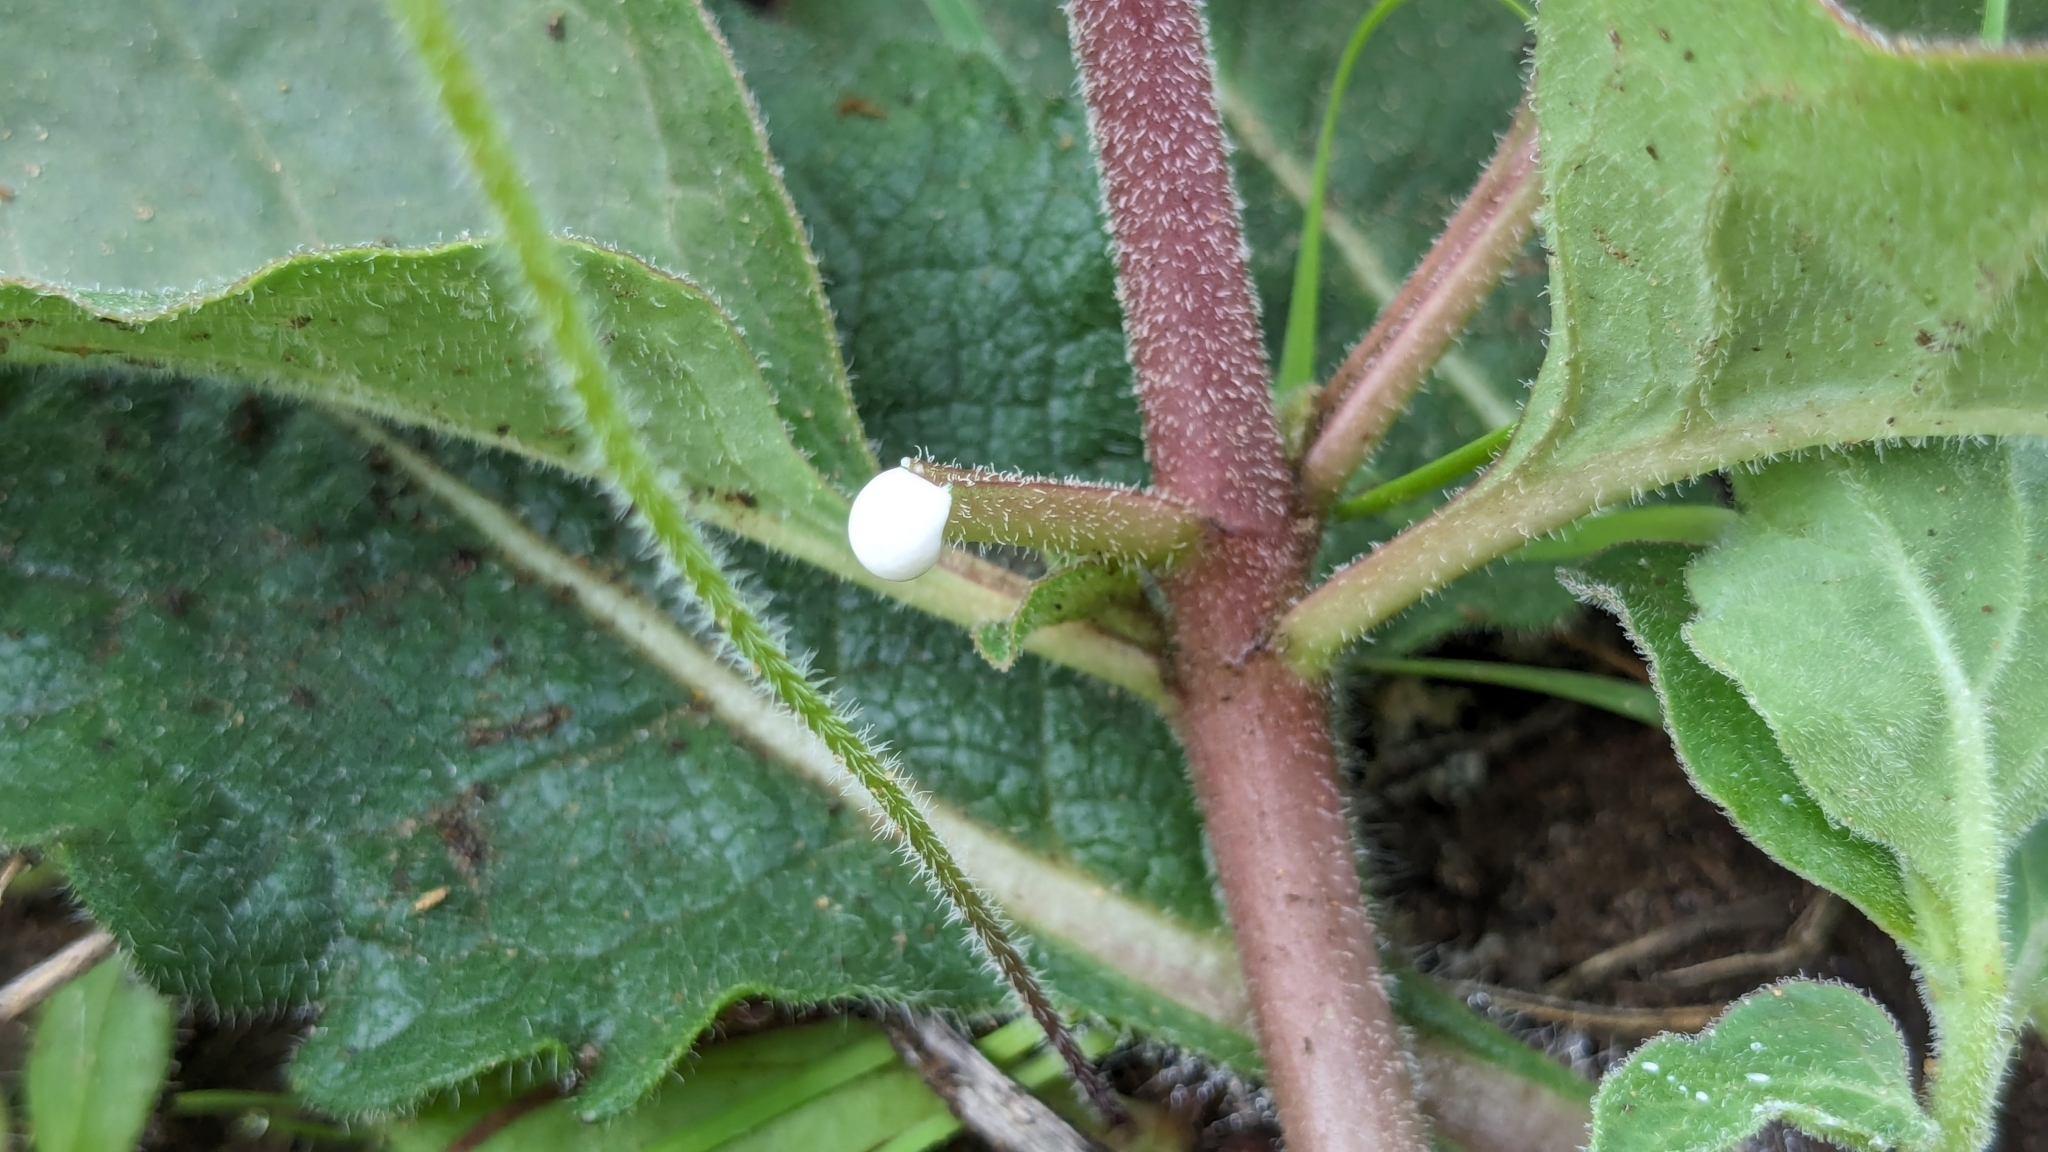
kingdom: Plantae
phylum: Tracheophyta
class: Magnoliopsida
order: Gentianales
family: Apocynaceae
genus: Asclepias
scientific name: Asclepias oenotheroides
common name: Zizotes milkweed
